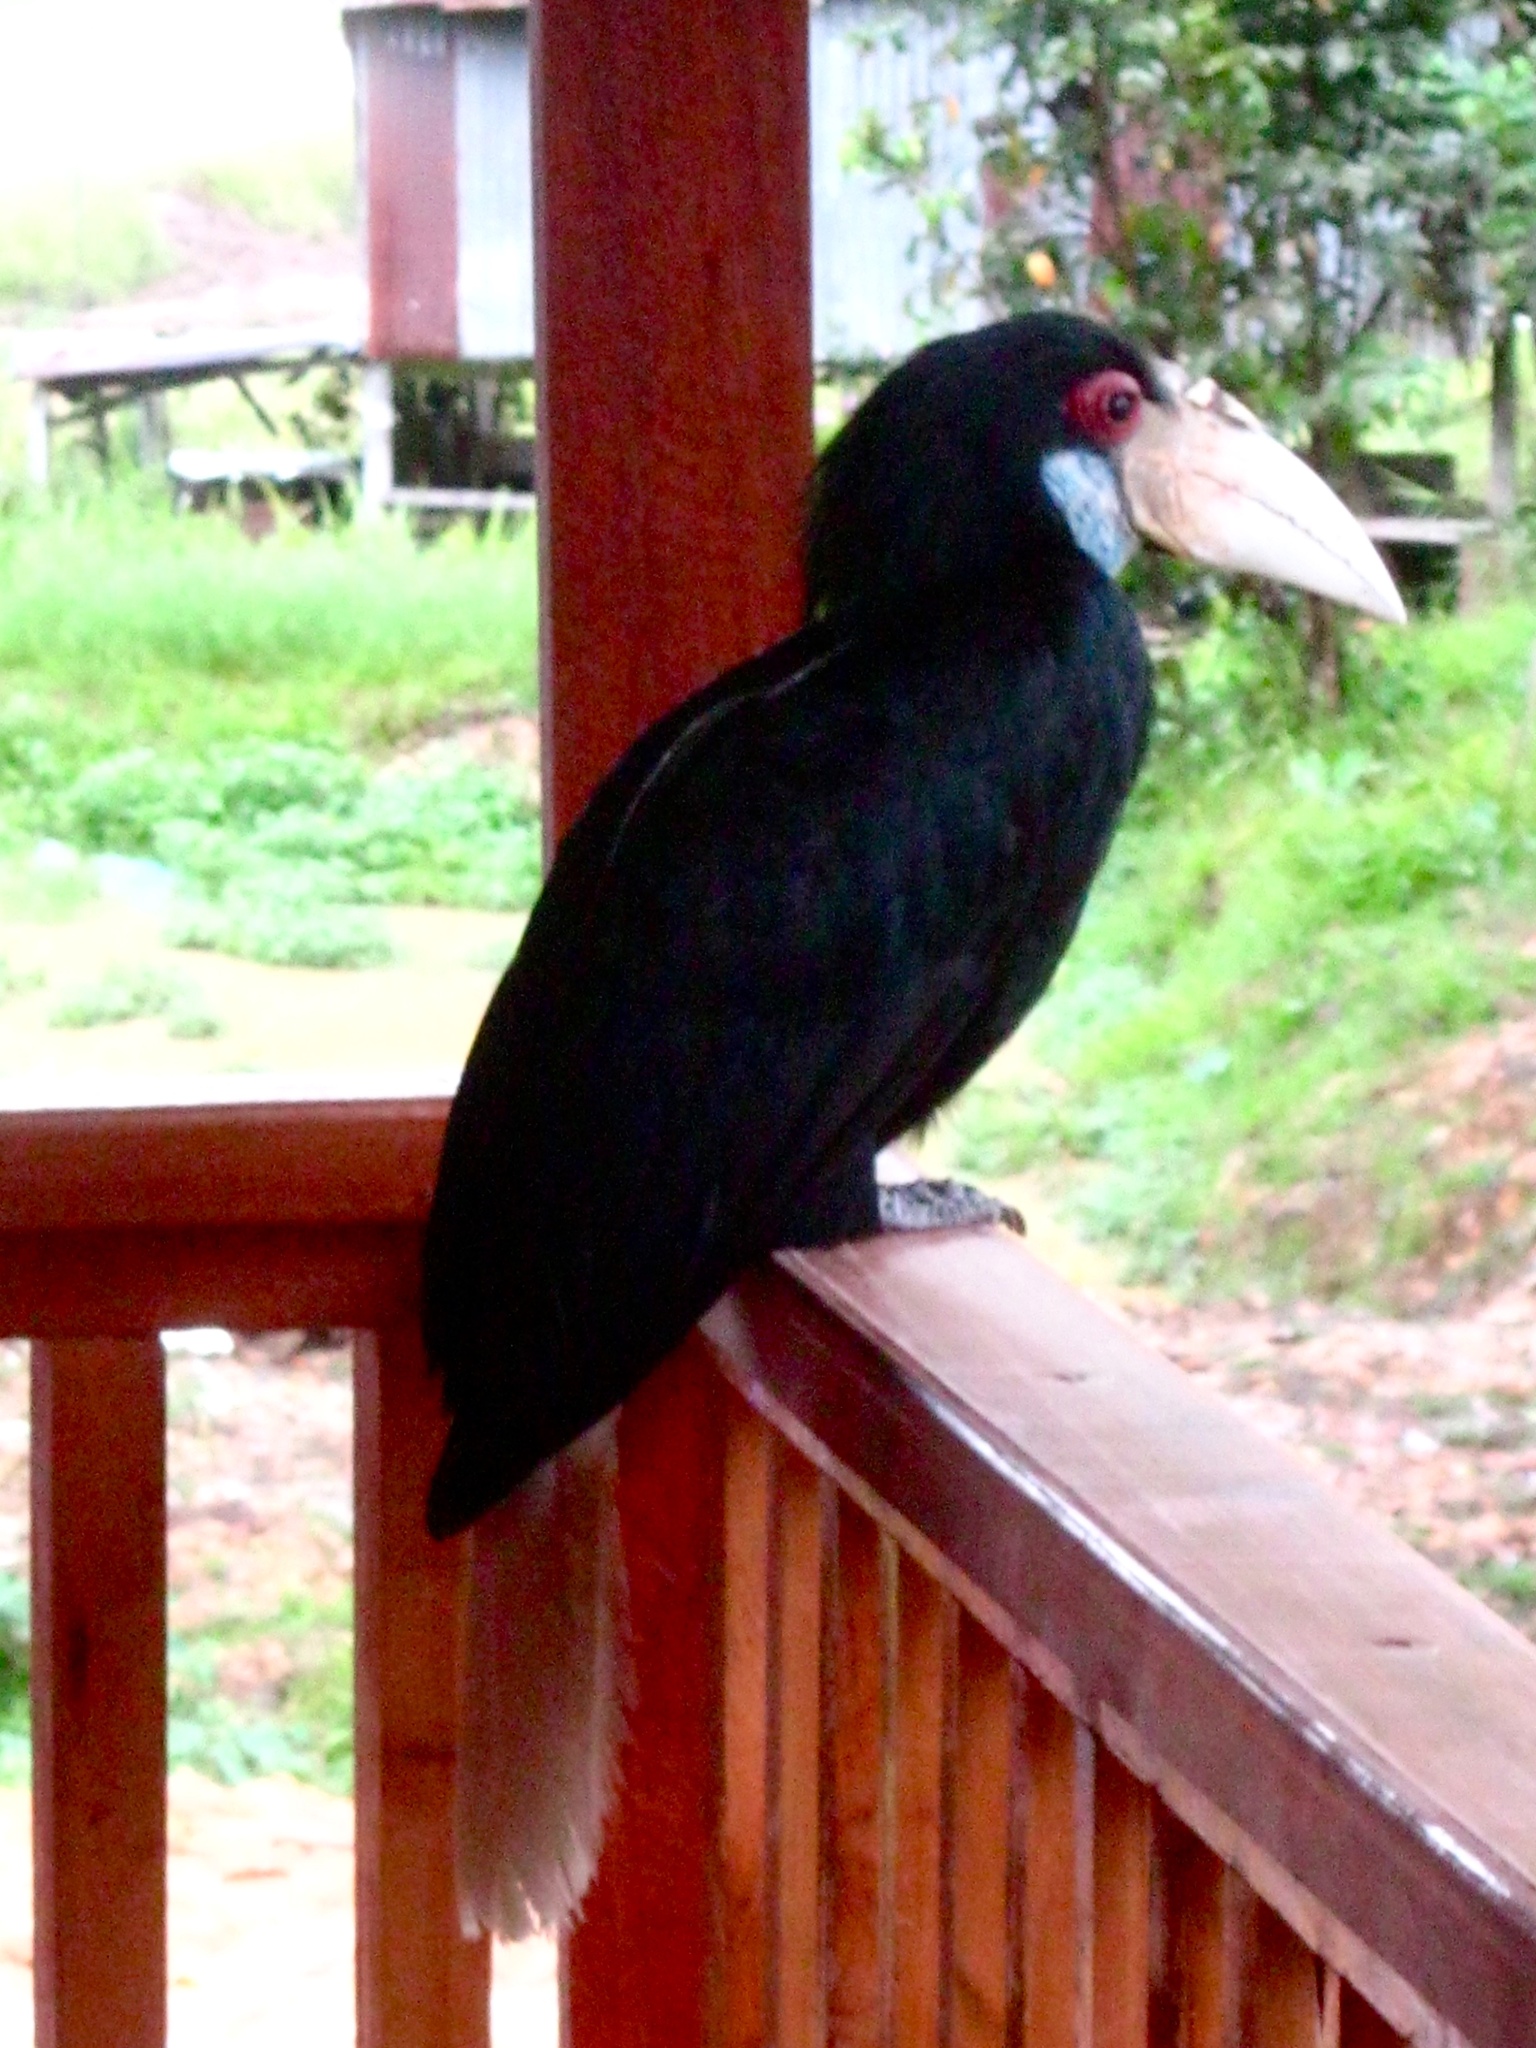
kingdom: Animalia
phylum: Chordata
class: Aves
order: Bucerotiformes
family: Bucerotidae
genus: Rhyticeros
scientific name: Rhyticeros undulatus
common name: Wreathed hornbill
